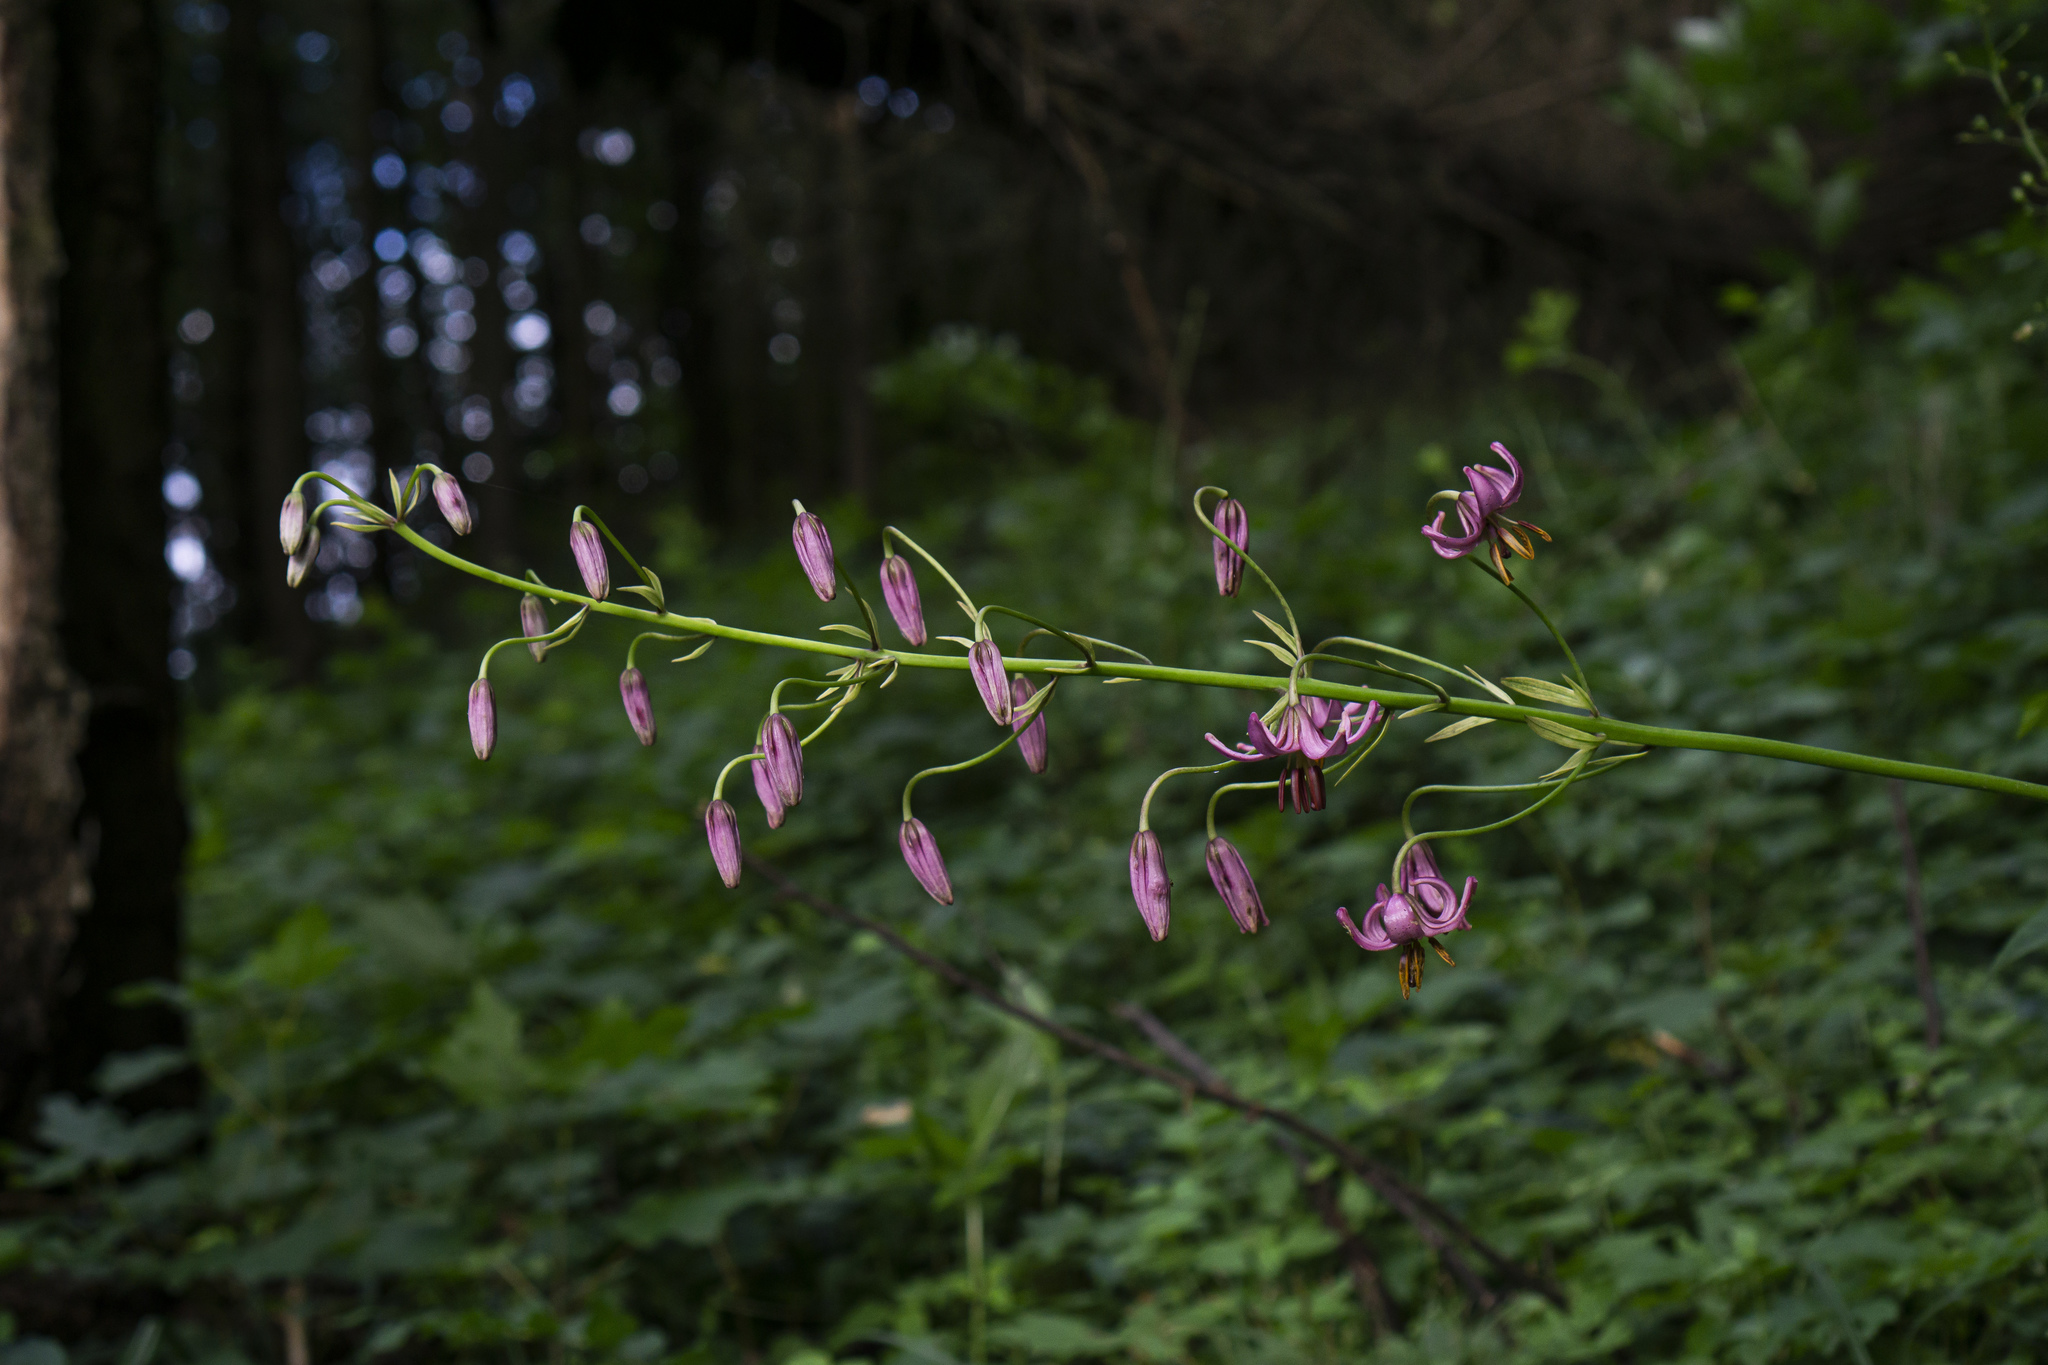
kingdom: Plantae
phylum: Tracheophyta
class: Liliopsida
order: Liliales
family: Liliaceae
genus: Lilium
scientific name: Lilium martagon
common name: Martagon lily
